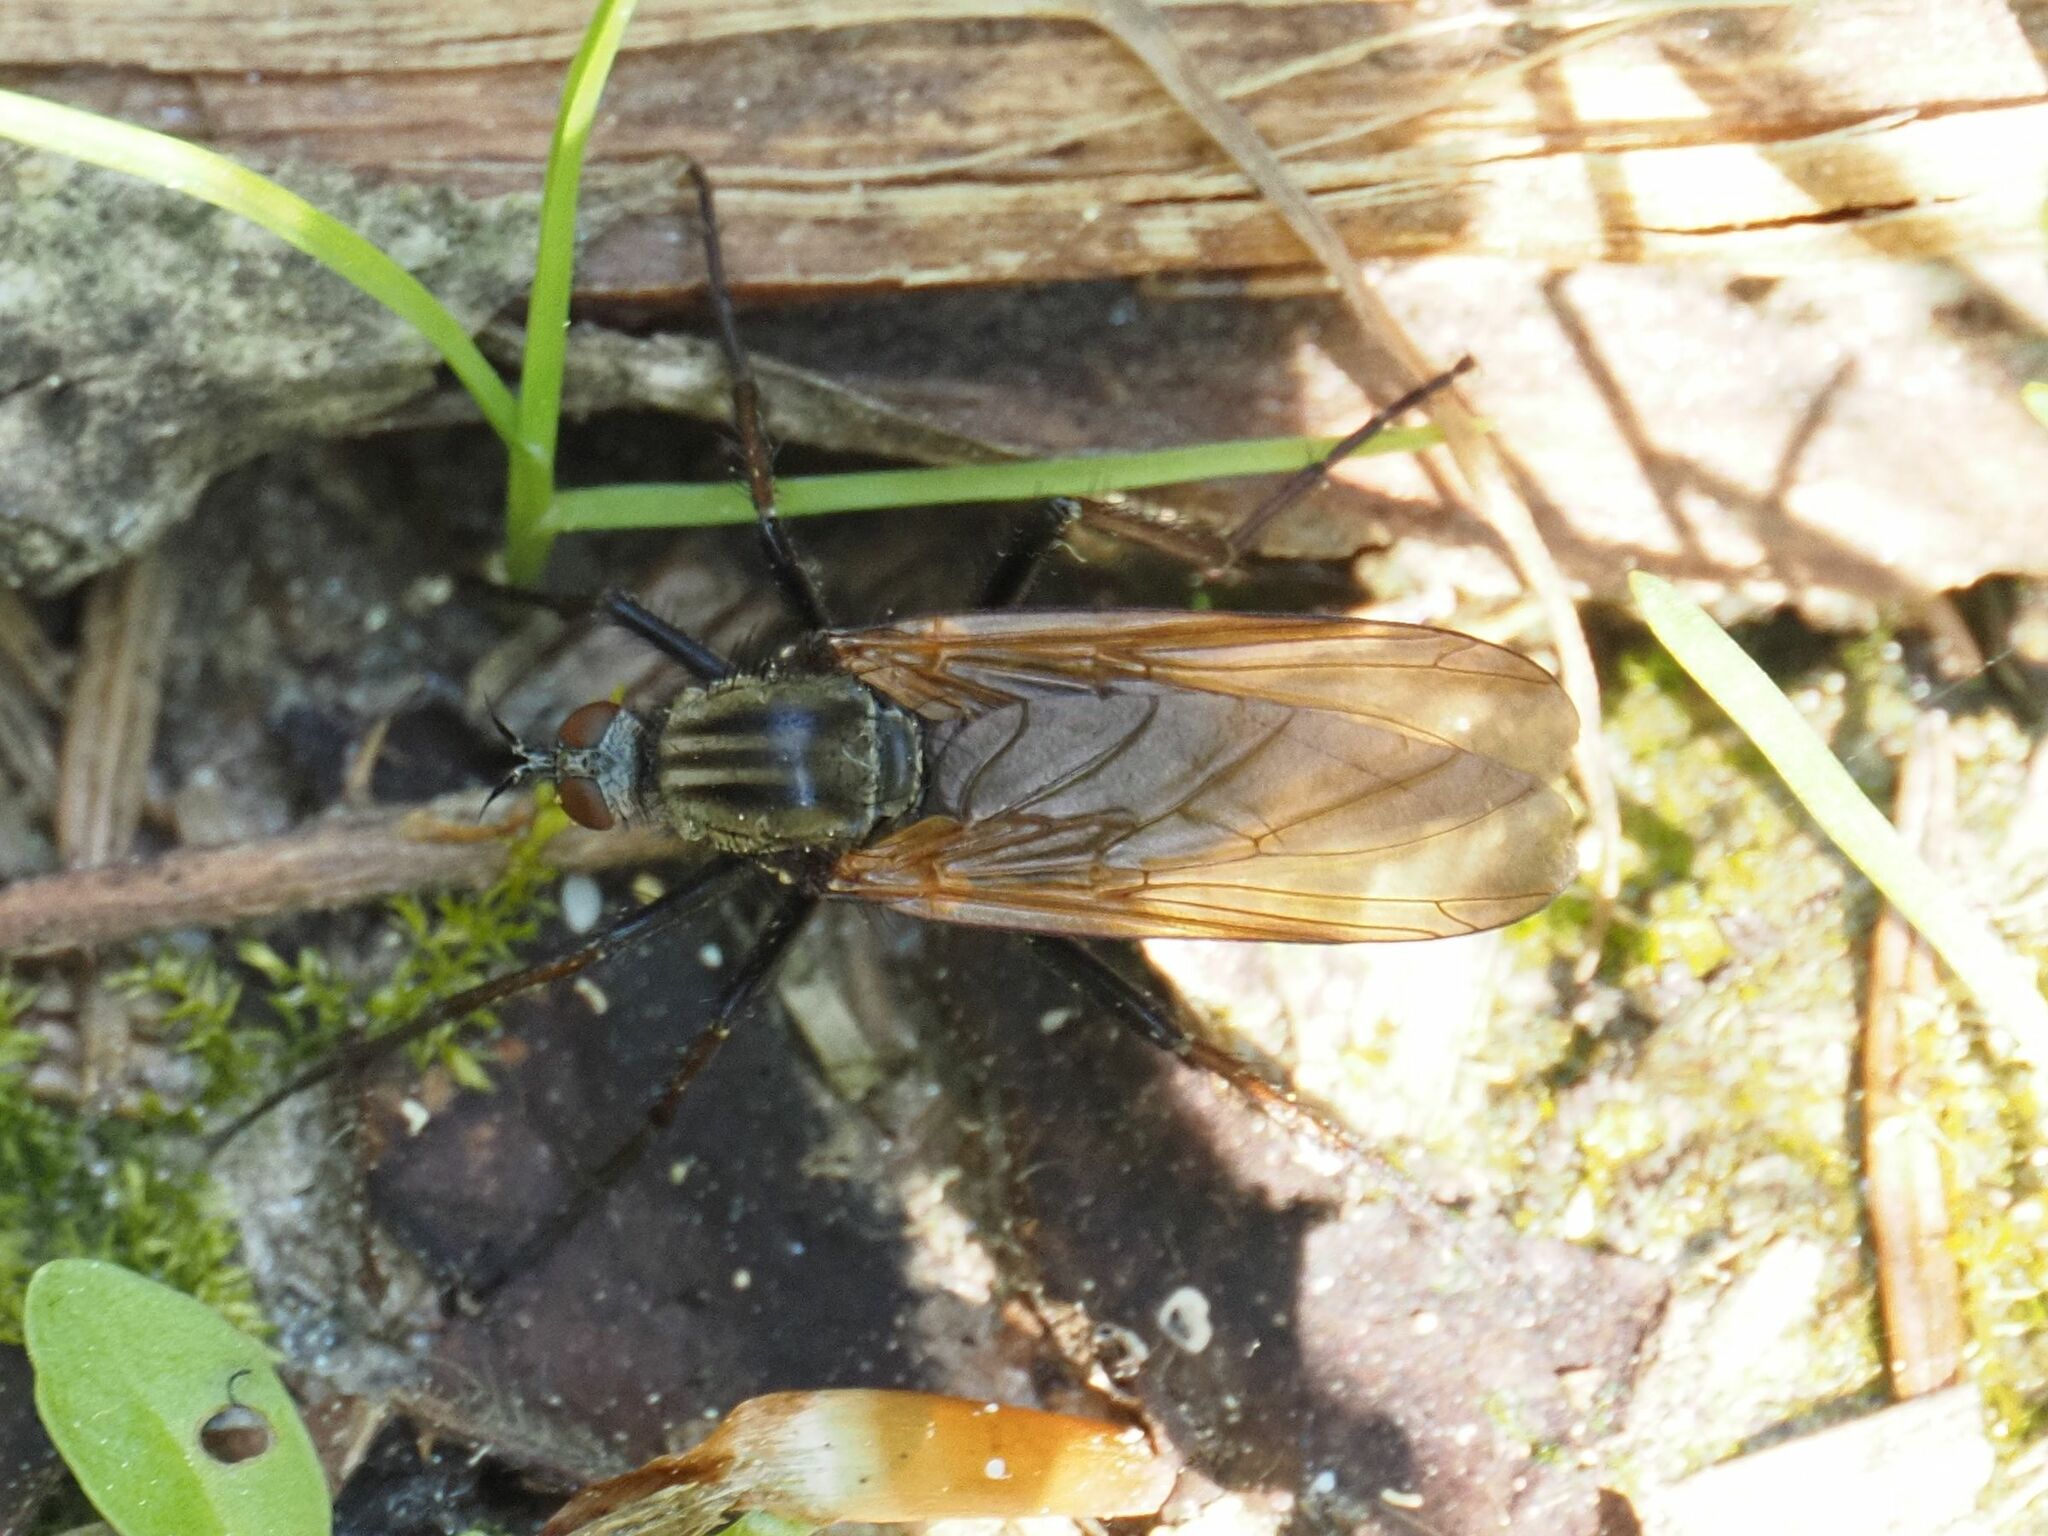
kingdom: Animalia
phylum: Arthropoda
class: Insecta
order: Diptera
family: Empididae
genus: Empis
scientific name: Empis tessellata
